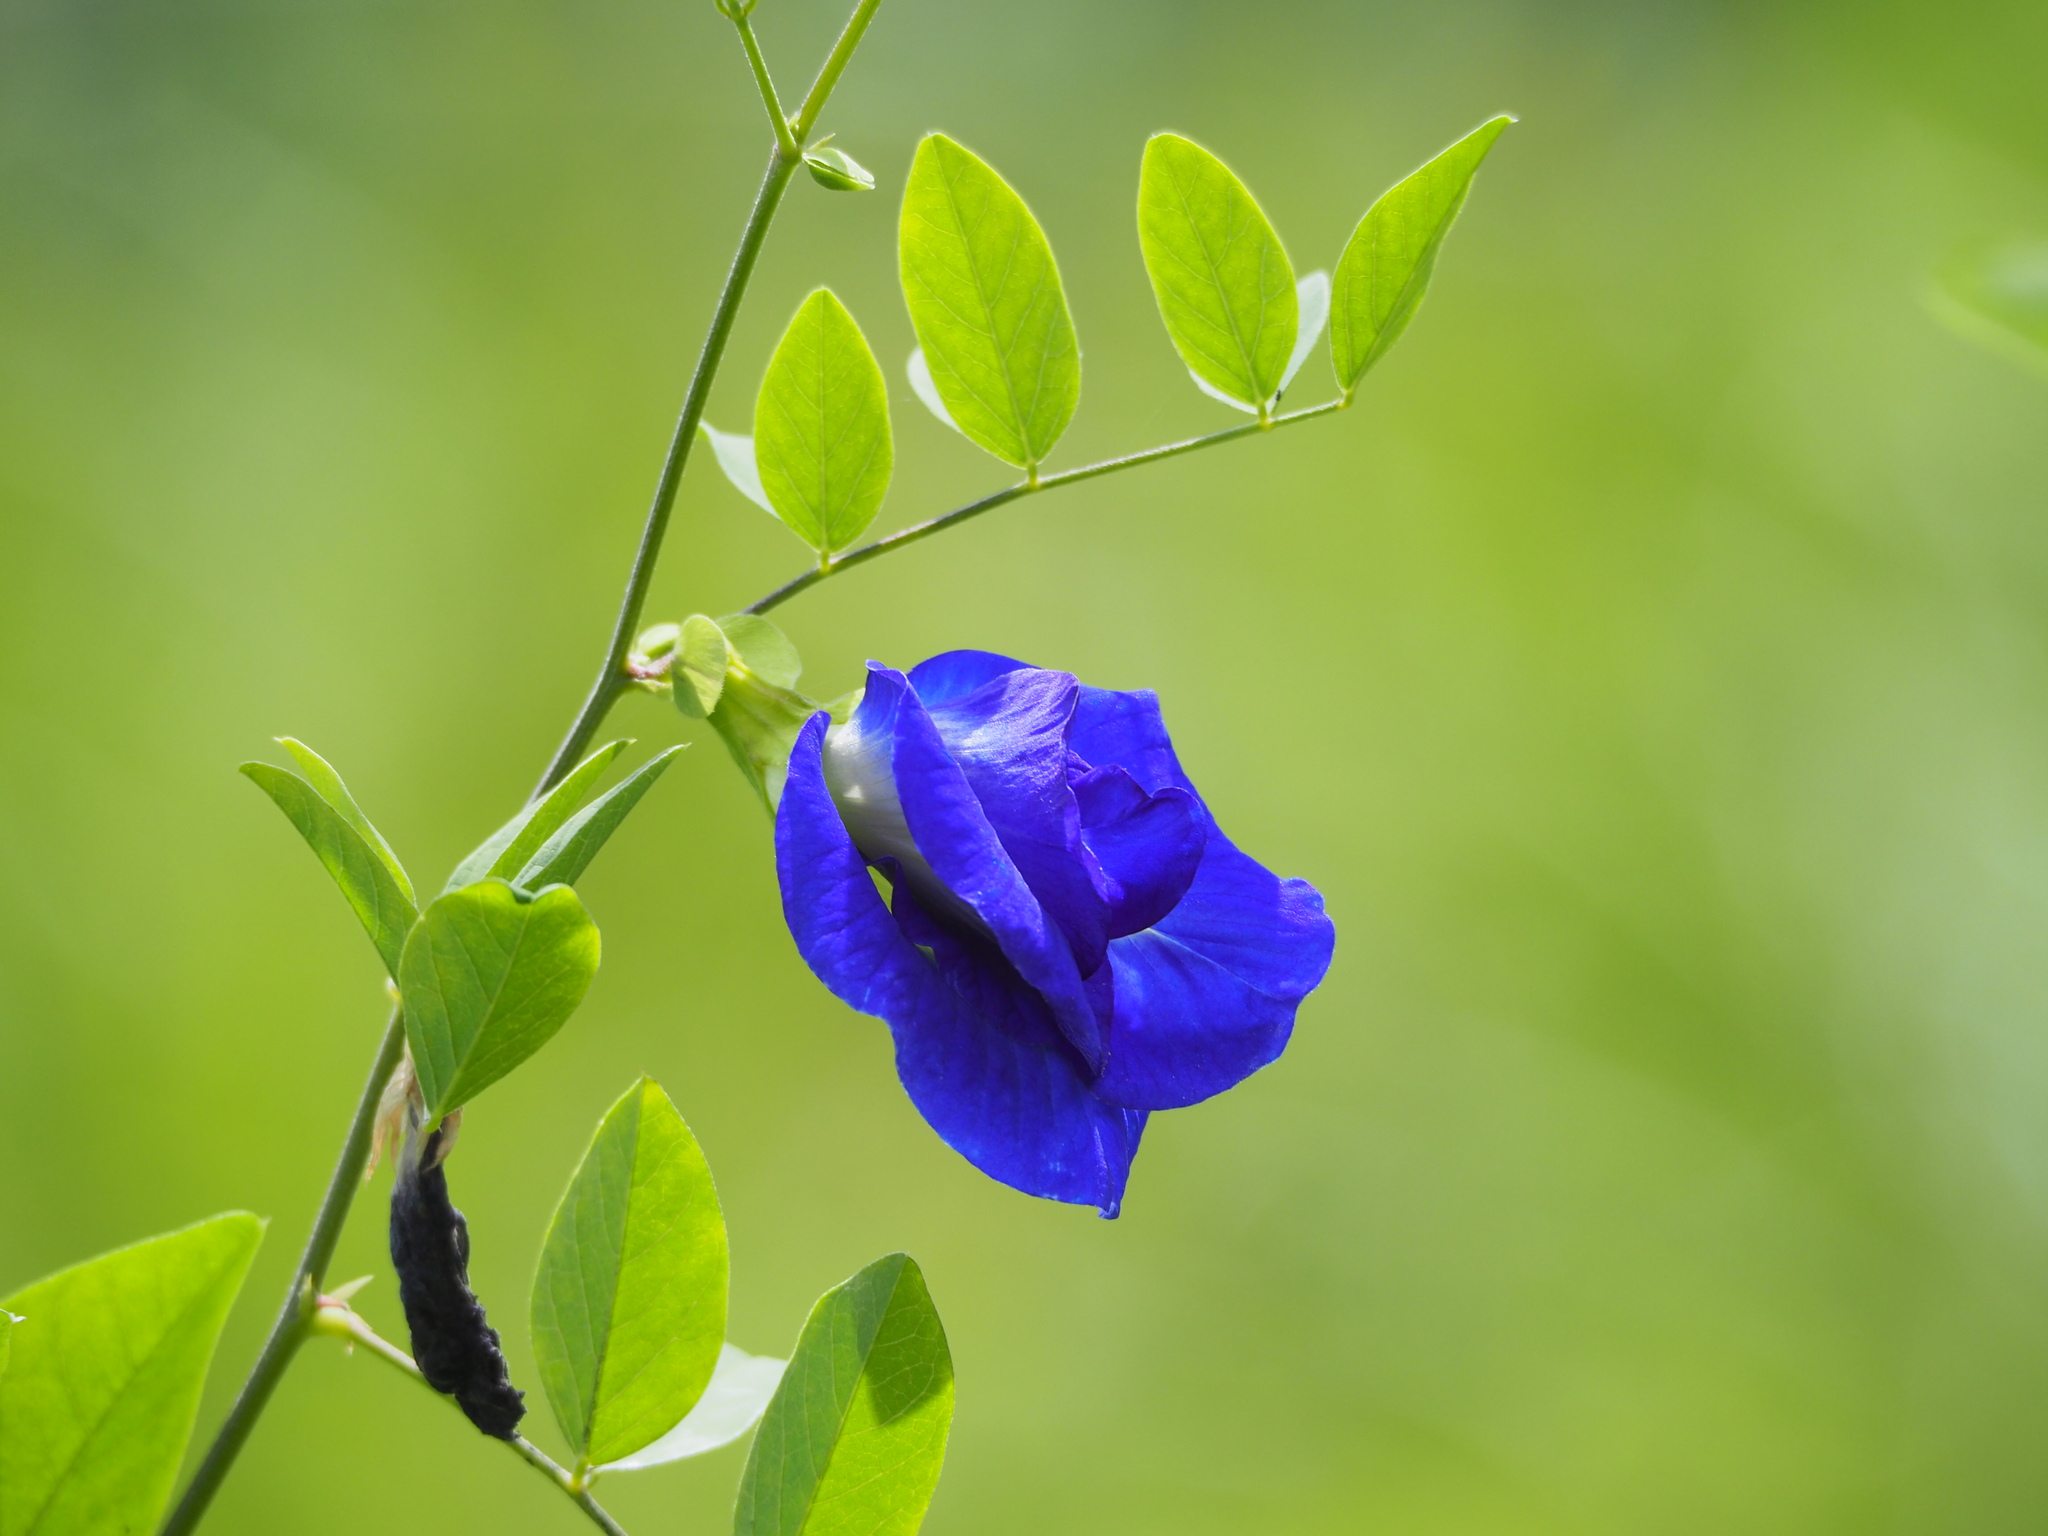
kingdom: Plantae
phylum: Tracheophyta
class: Magnoliopsida
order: Fabales
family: Fabaceae
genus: Clitoria
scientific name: Clitoria ternatea
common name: Asian pigeonwings
